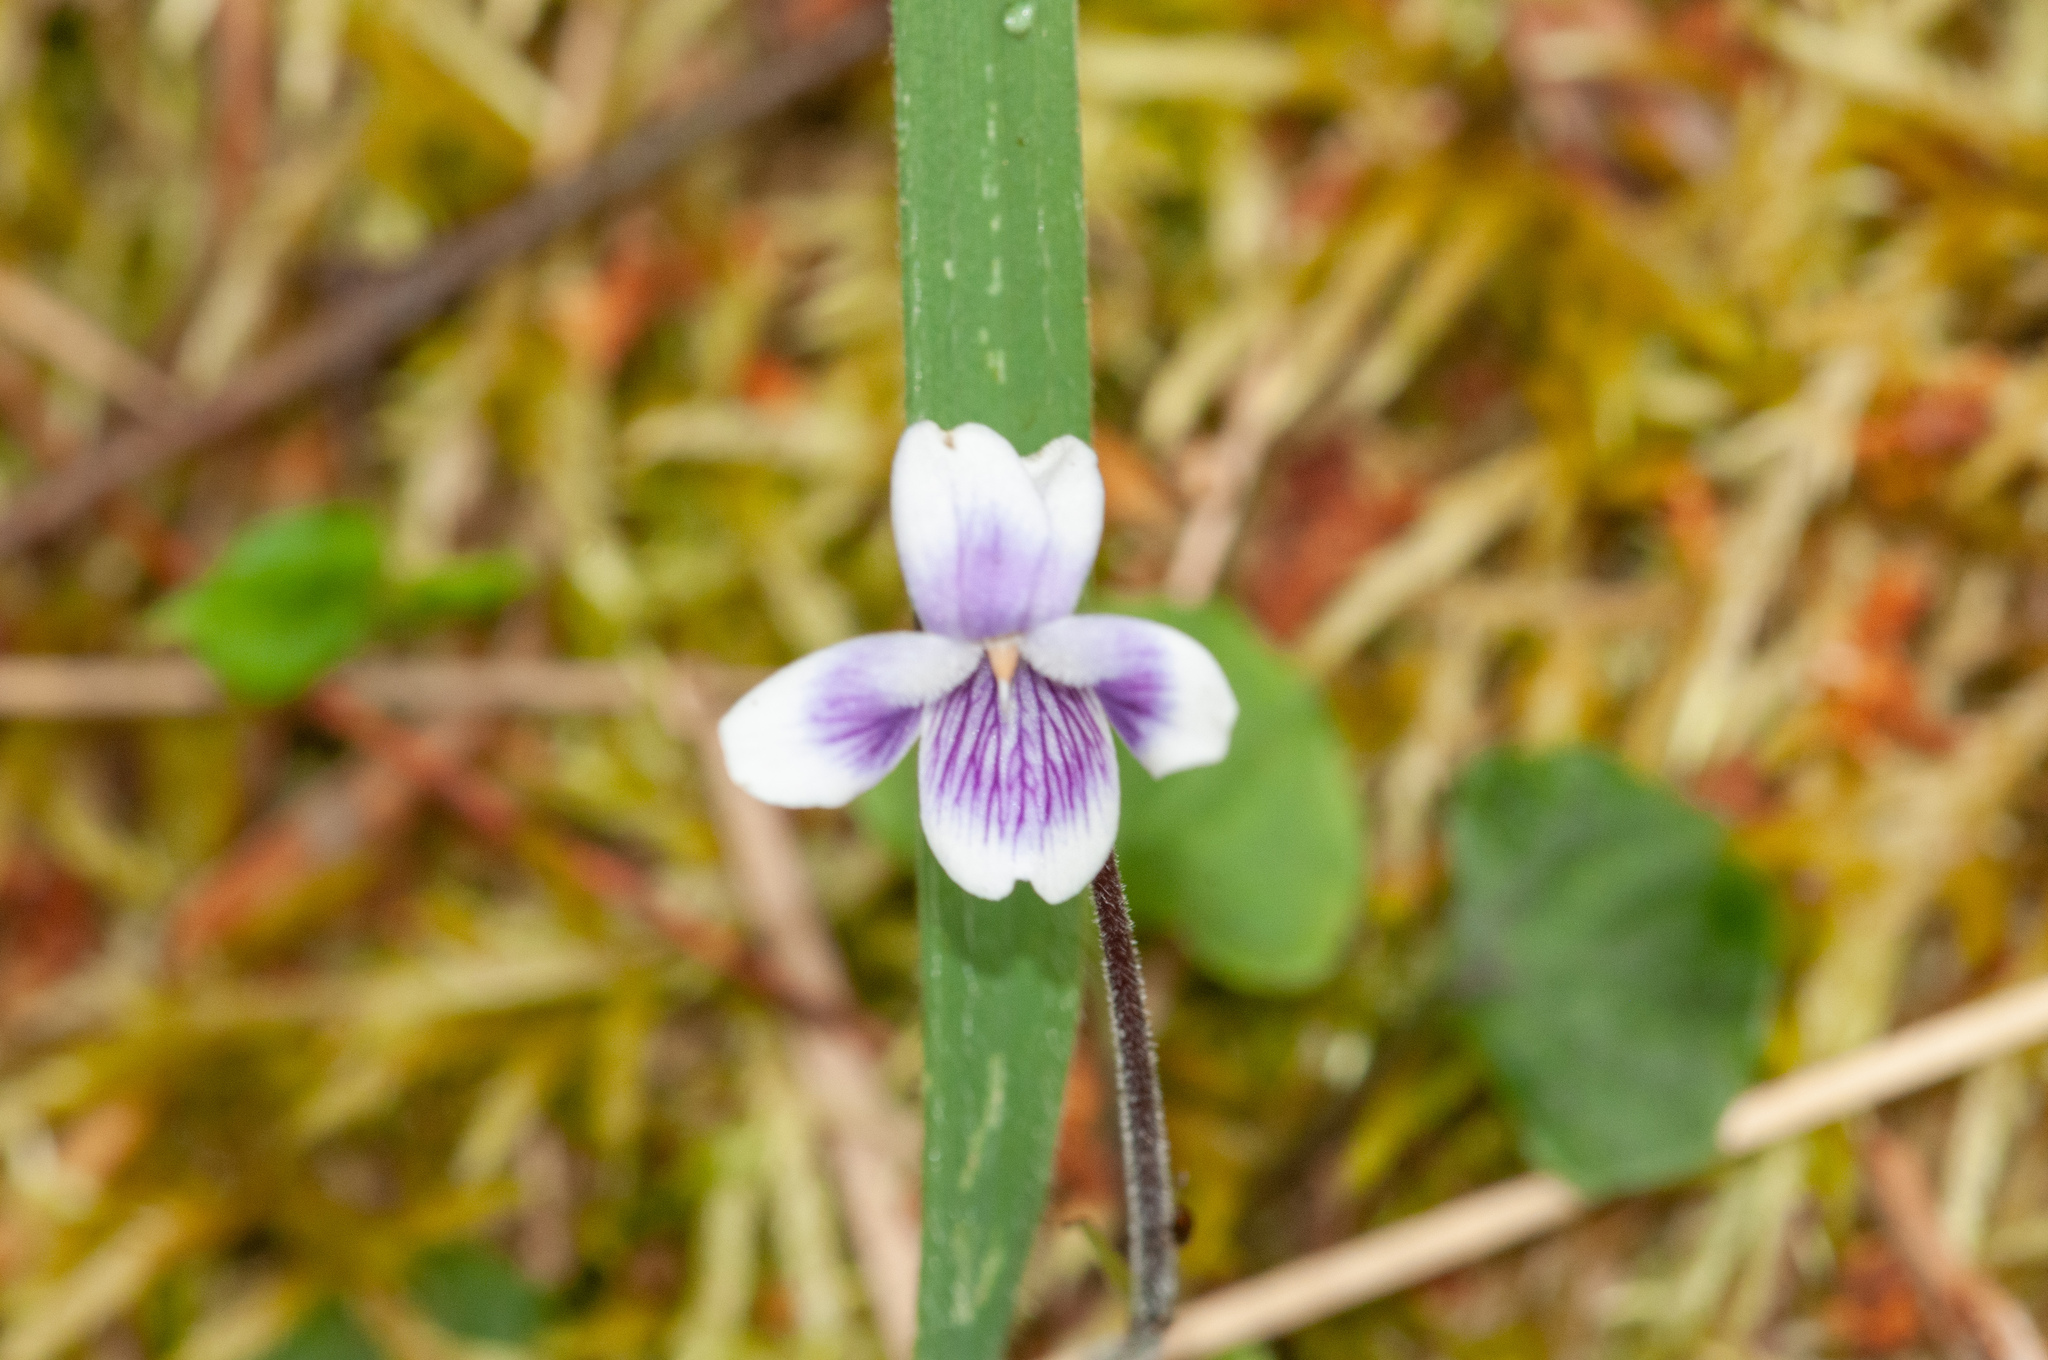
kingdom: Plantae
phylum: Tracheophyta
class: Magnoliopsida
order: Malpighiales
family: Violaceae
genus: Viola
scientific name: Viola hederacea
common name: Australian violet
